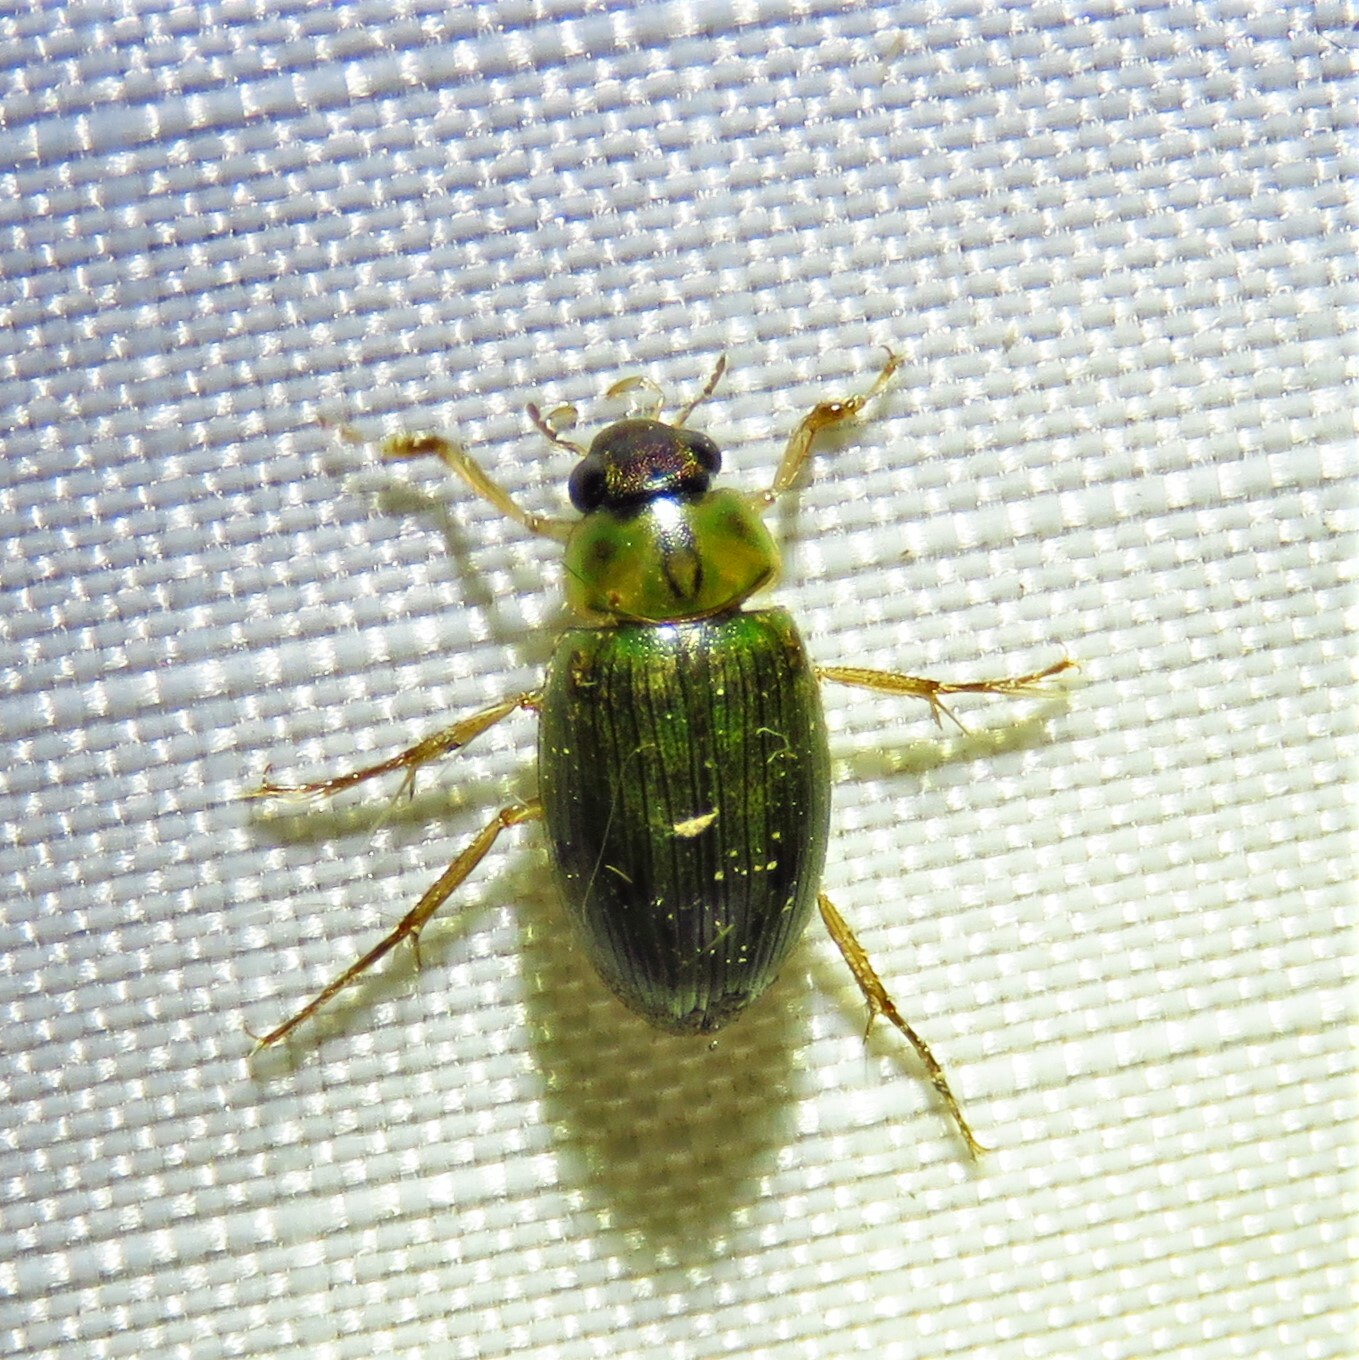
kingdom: Animalia
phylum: Arthropoda
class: Insecta
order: Coleoptera
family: Hydrophilidae
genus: Berosus
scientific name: Berosus
